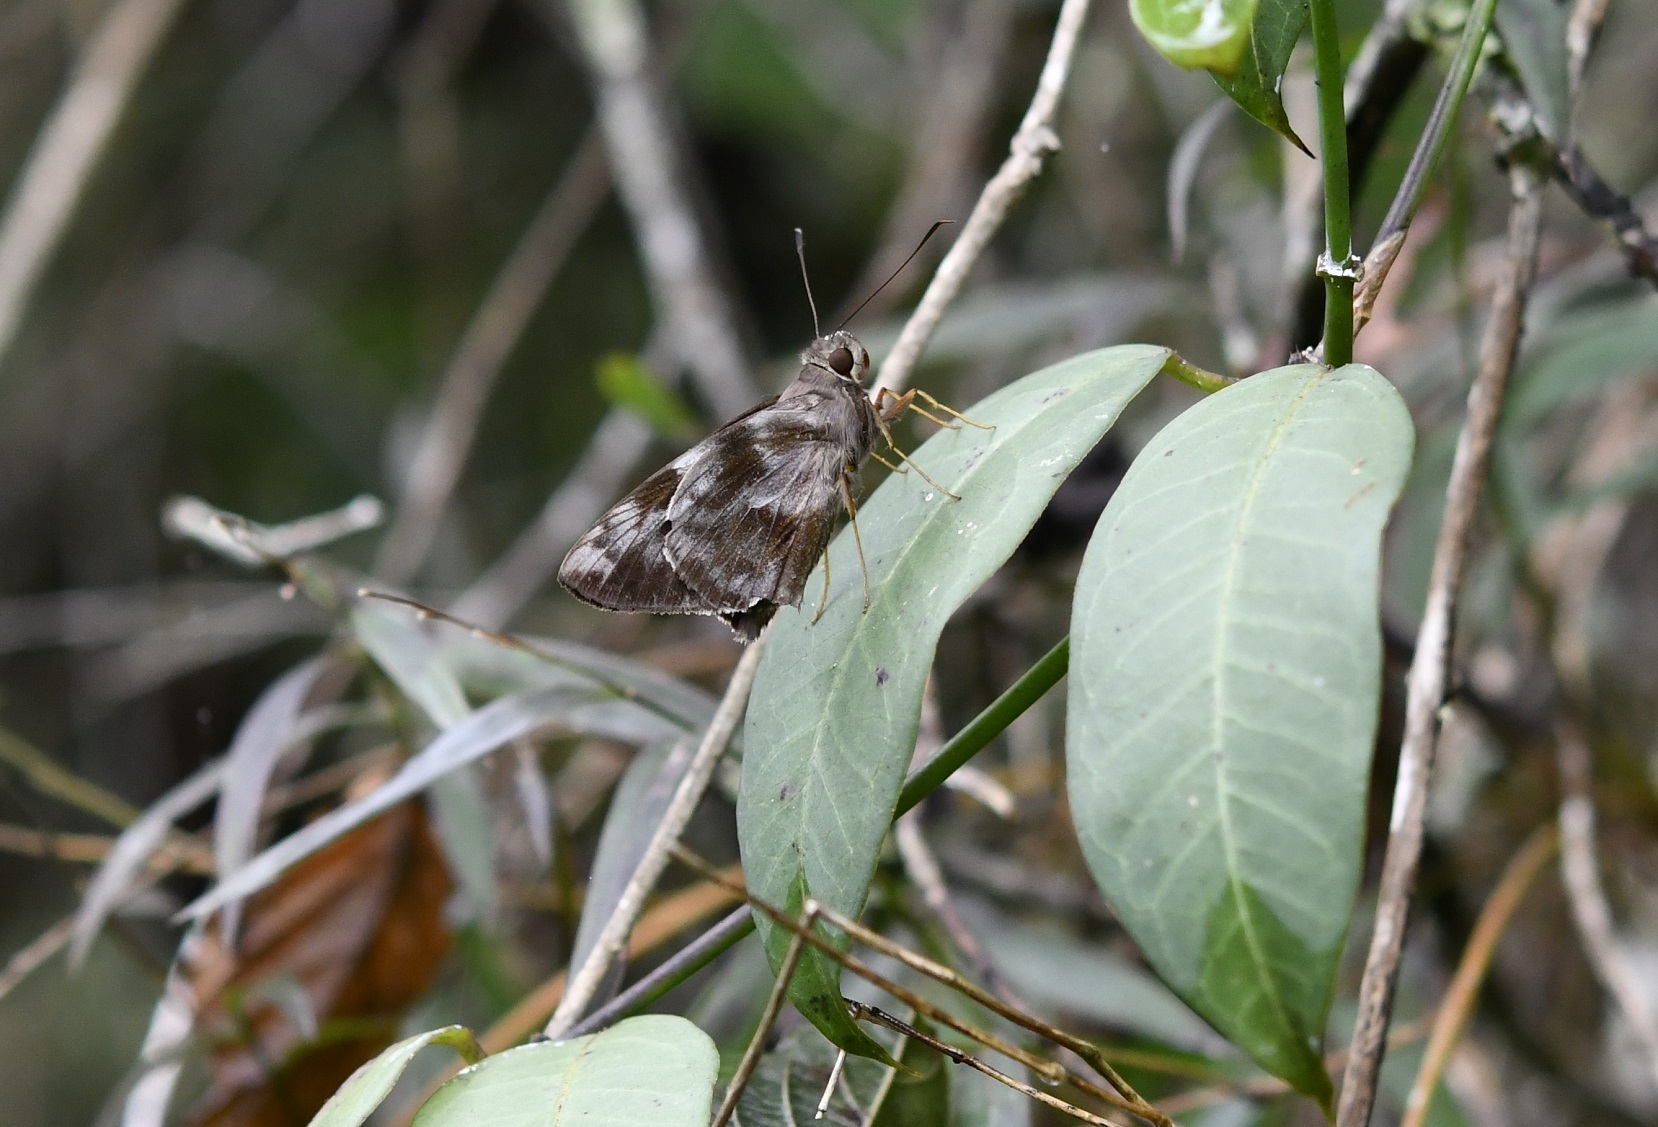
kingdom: Animalia
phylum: Arthropoda
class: Insecta
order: Lepidoptera
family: Hesperiidae
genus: Perichares
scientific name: Perichares philetes
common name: Green-backed ruby-eye
